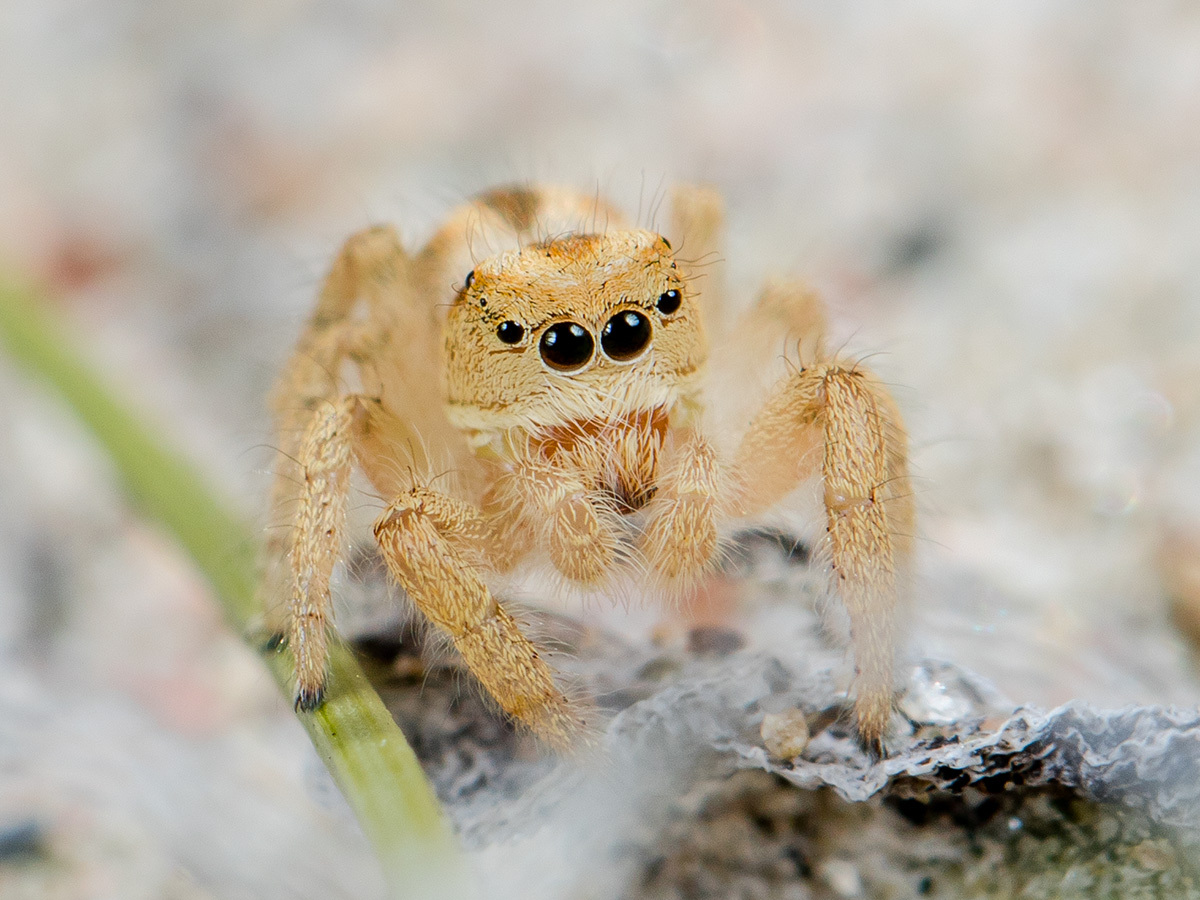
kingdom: Animalia
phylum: Arthropoda
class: Arachnida
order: Araneae
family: Salticidae
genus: Pseudomogrus
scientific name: Pseudomogrus zhilgaensis
